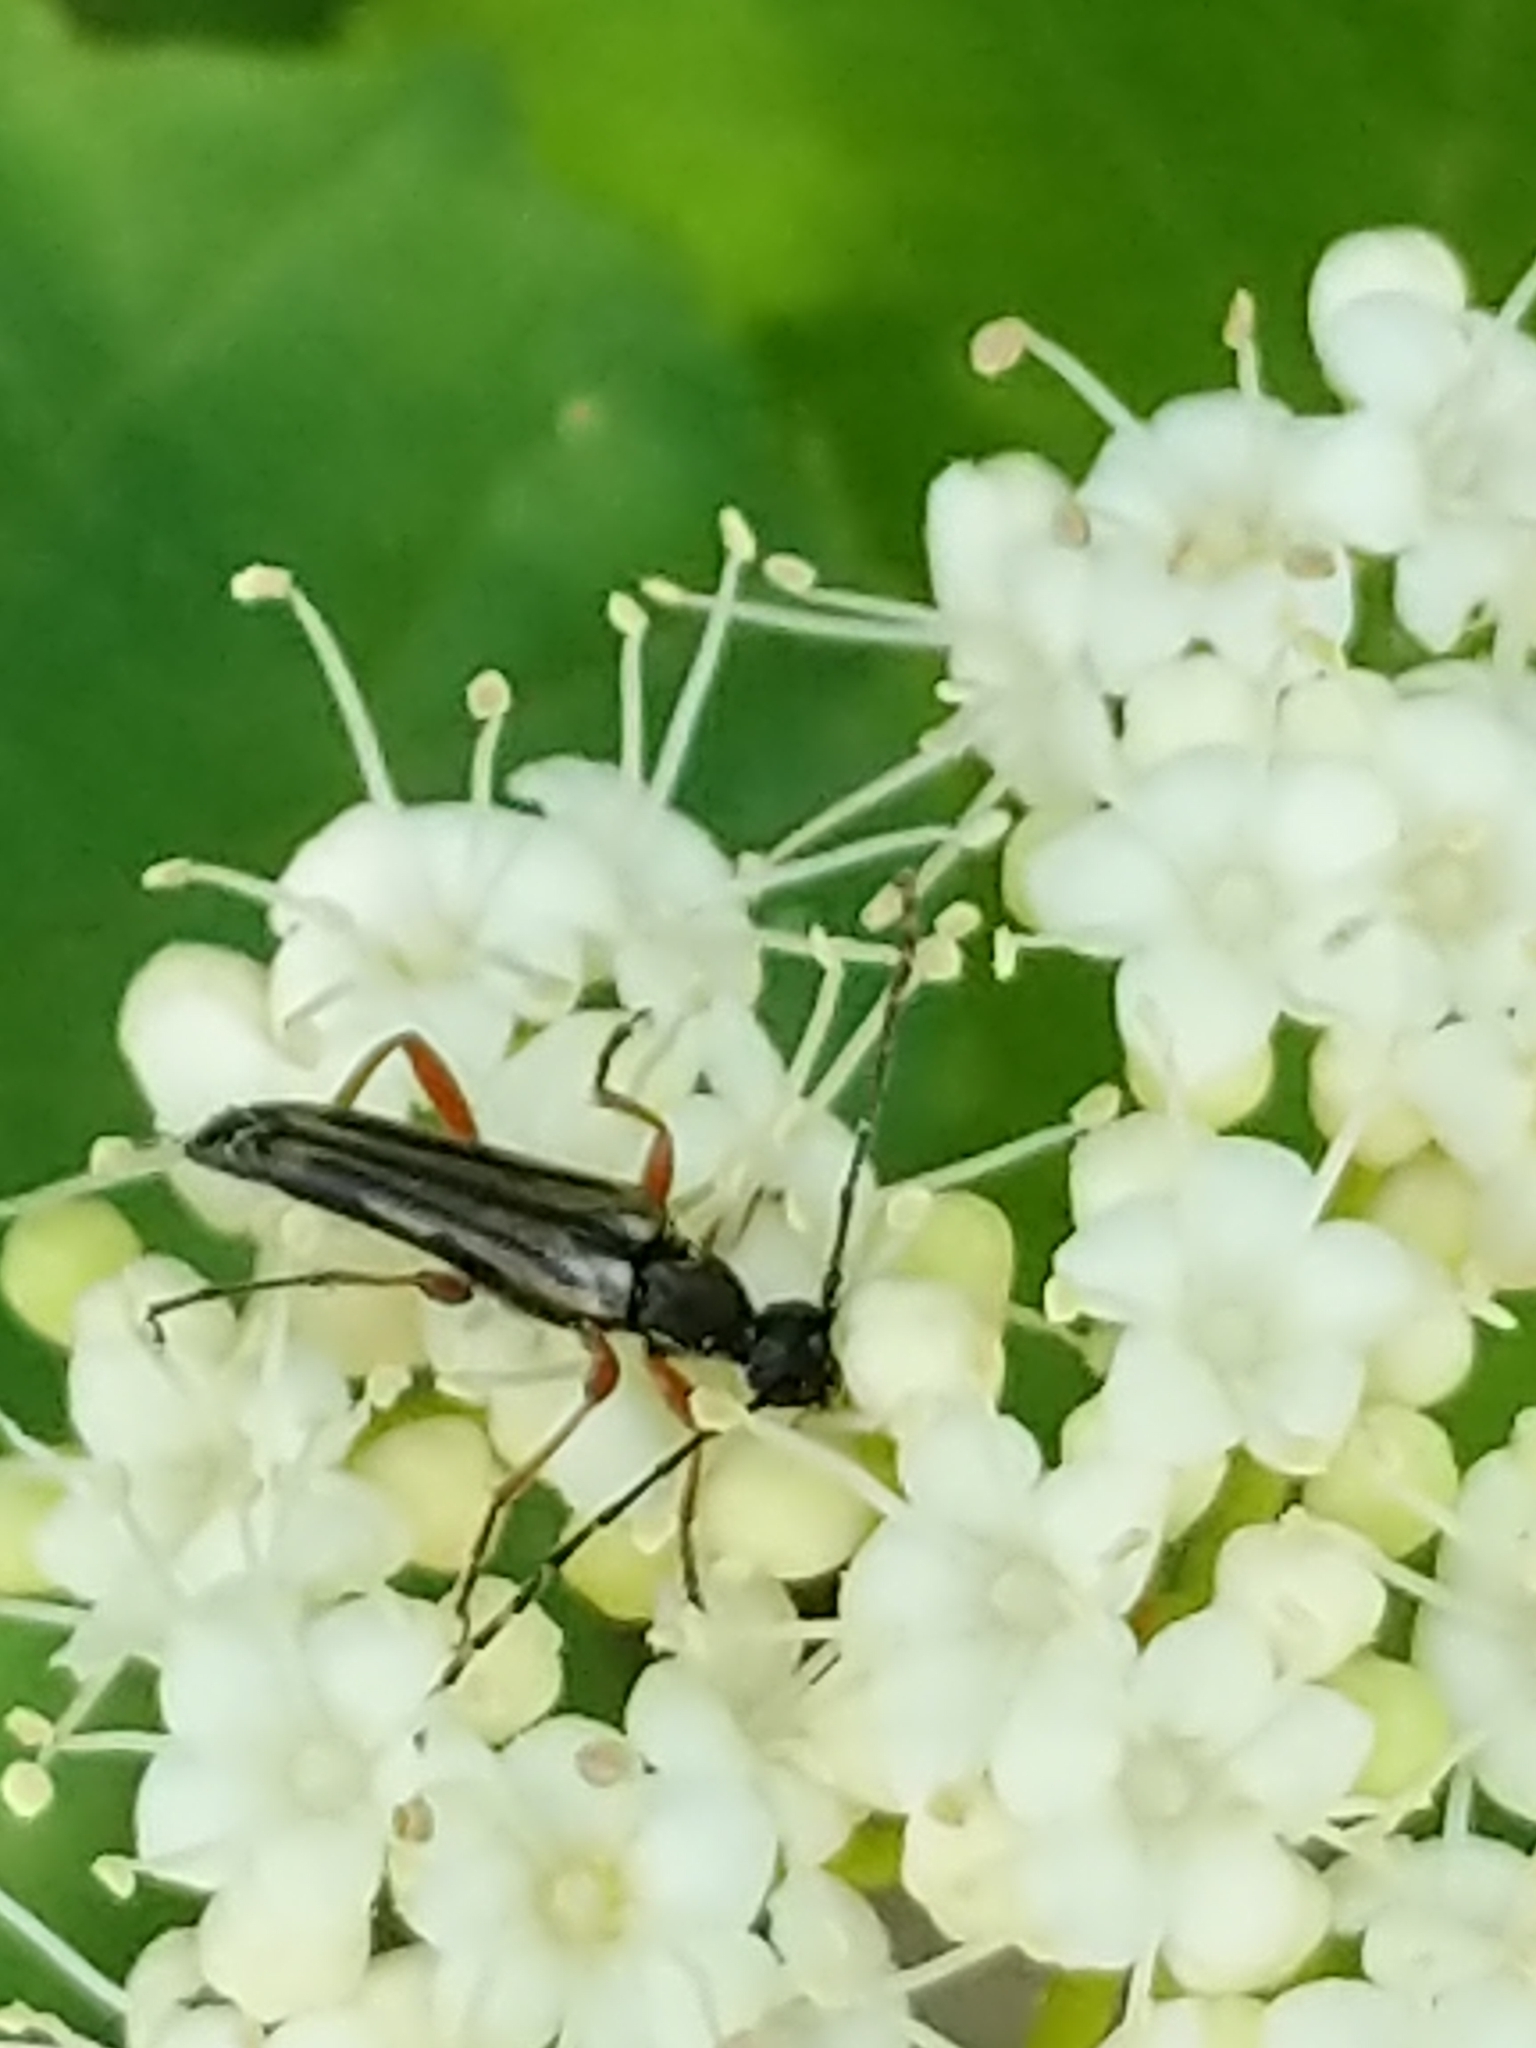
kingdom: Animalia
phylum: Arthropoda
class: Insecta
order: Coleoptera
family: Cerambycidae
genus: Analeptura
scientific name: Analeptura lineola
